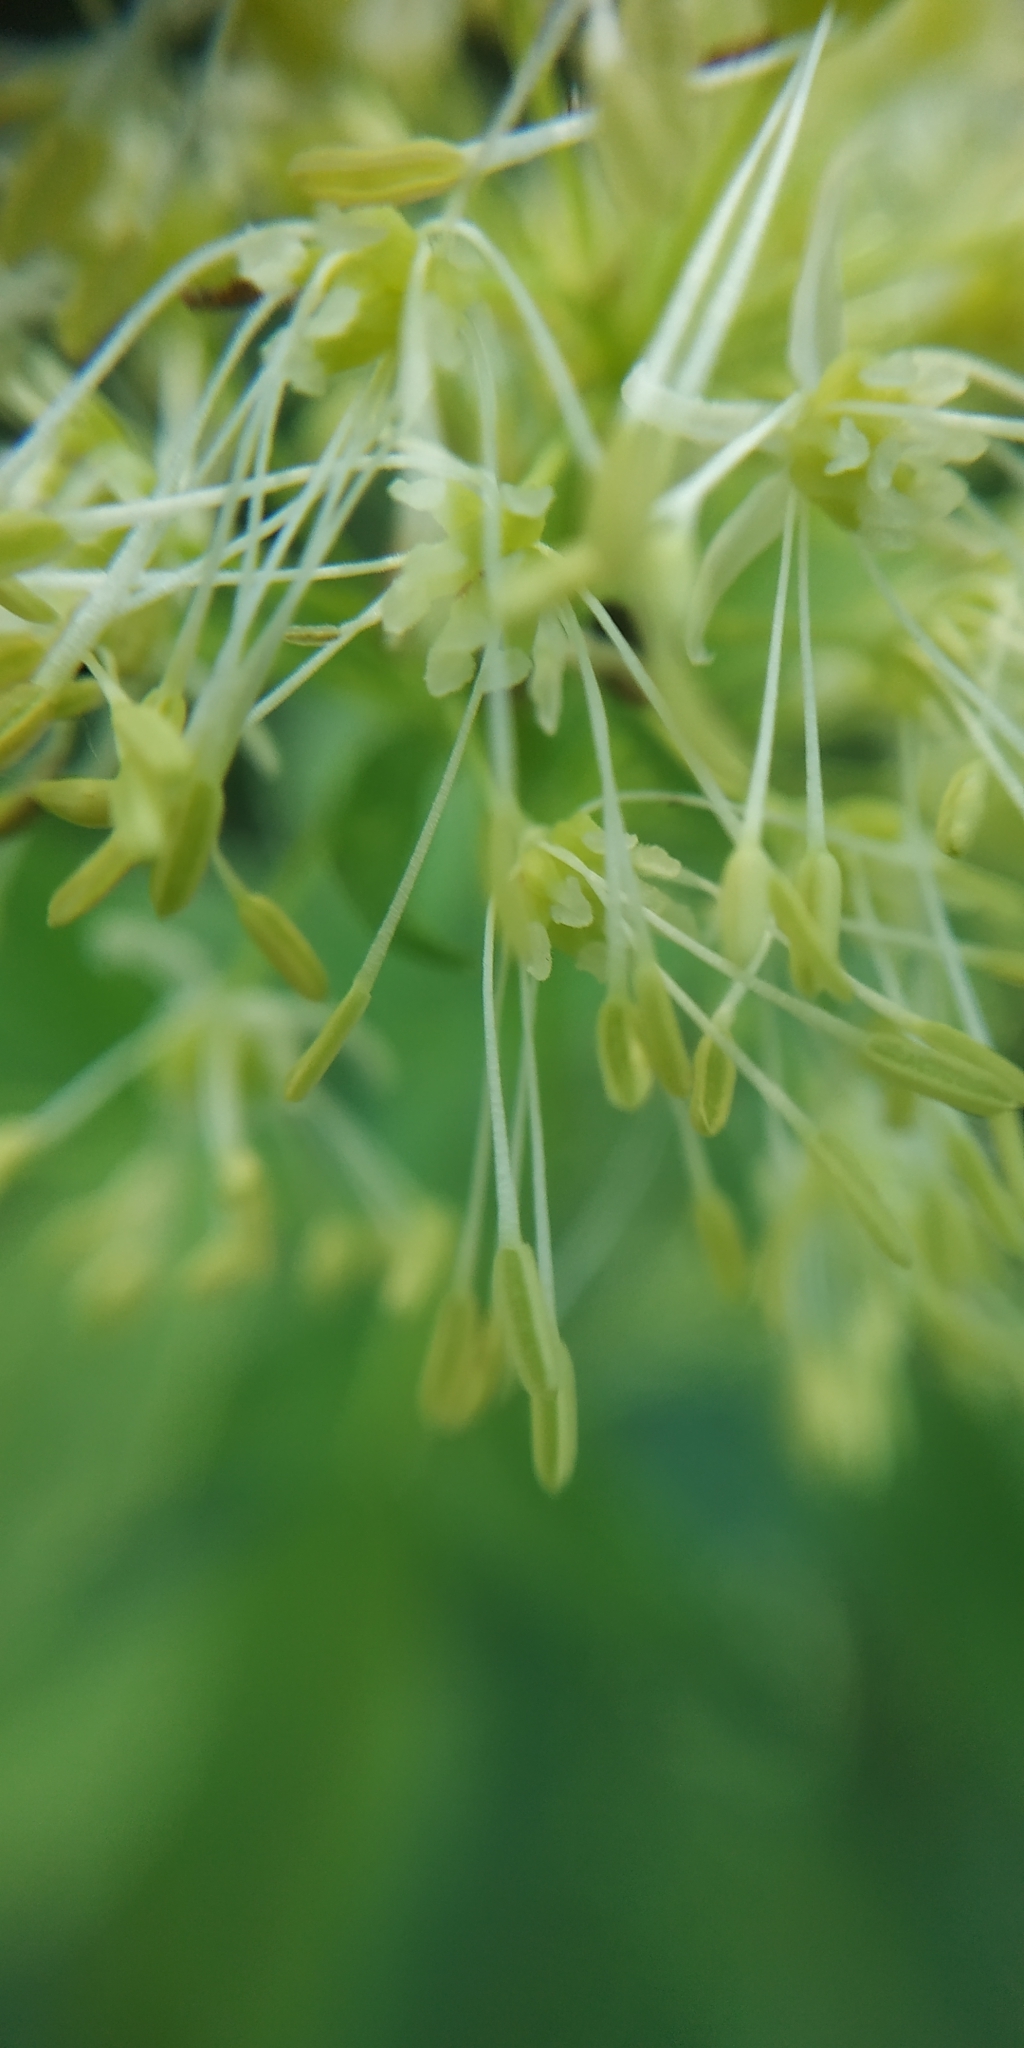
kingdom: Plantae
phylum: Tracheophyta
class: Magnoliopsida
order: Ranunculales
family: Ranunculaceae
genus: Thalictrum
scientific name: Thalictrum flavum
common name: Common meadow-rue
